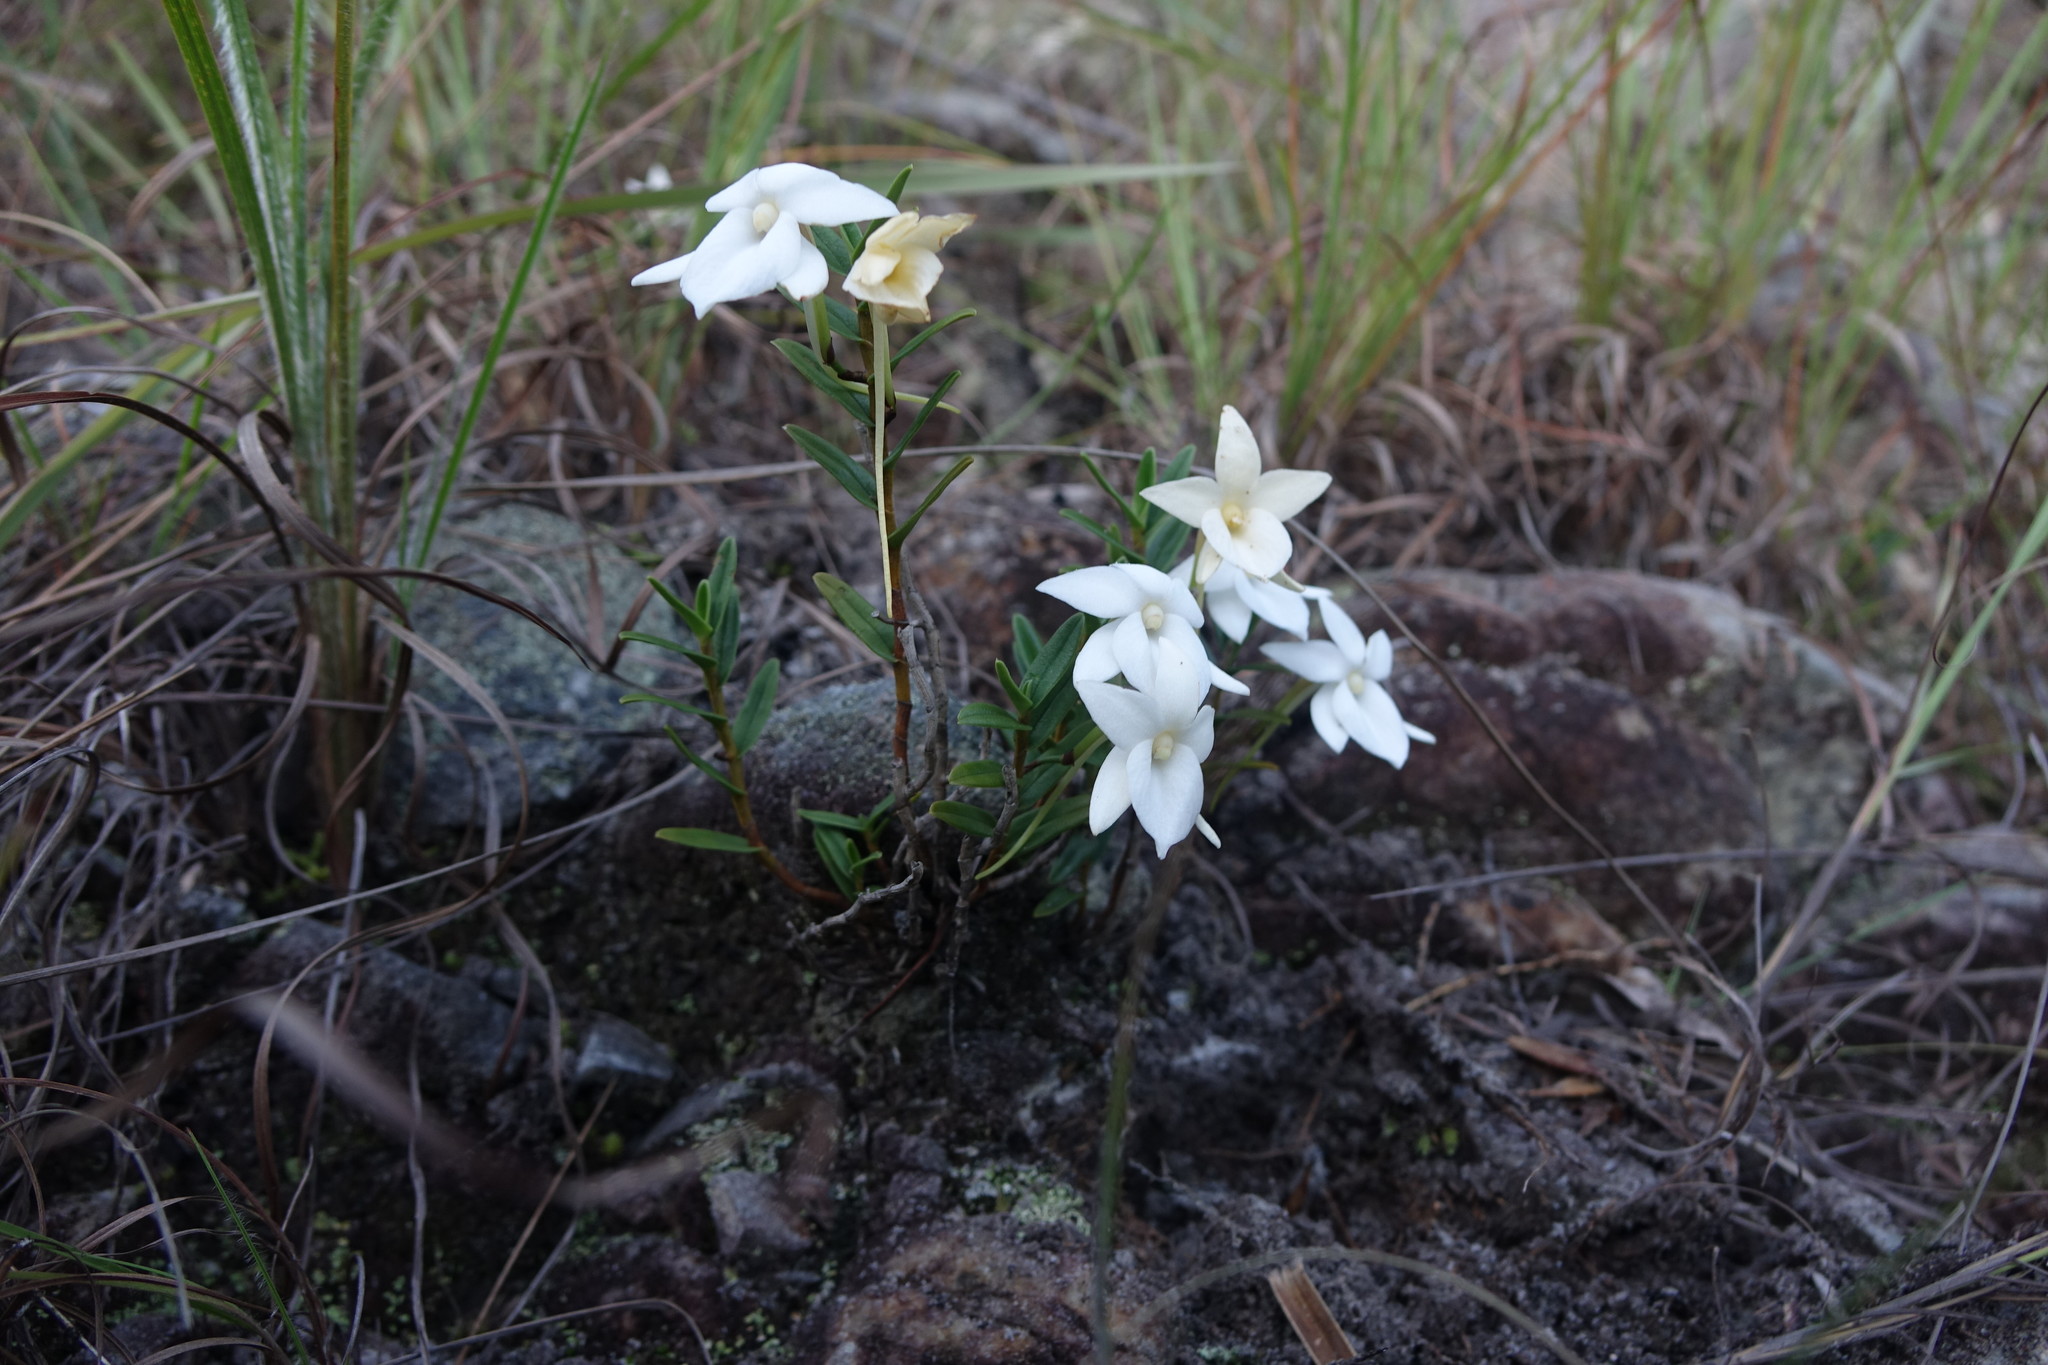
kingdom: Plantae
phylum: Tracheophyta
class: Liliopsida
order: Asparagales
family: Orchidaceae
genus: Angraecum
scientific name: Angraecum coutrixii
